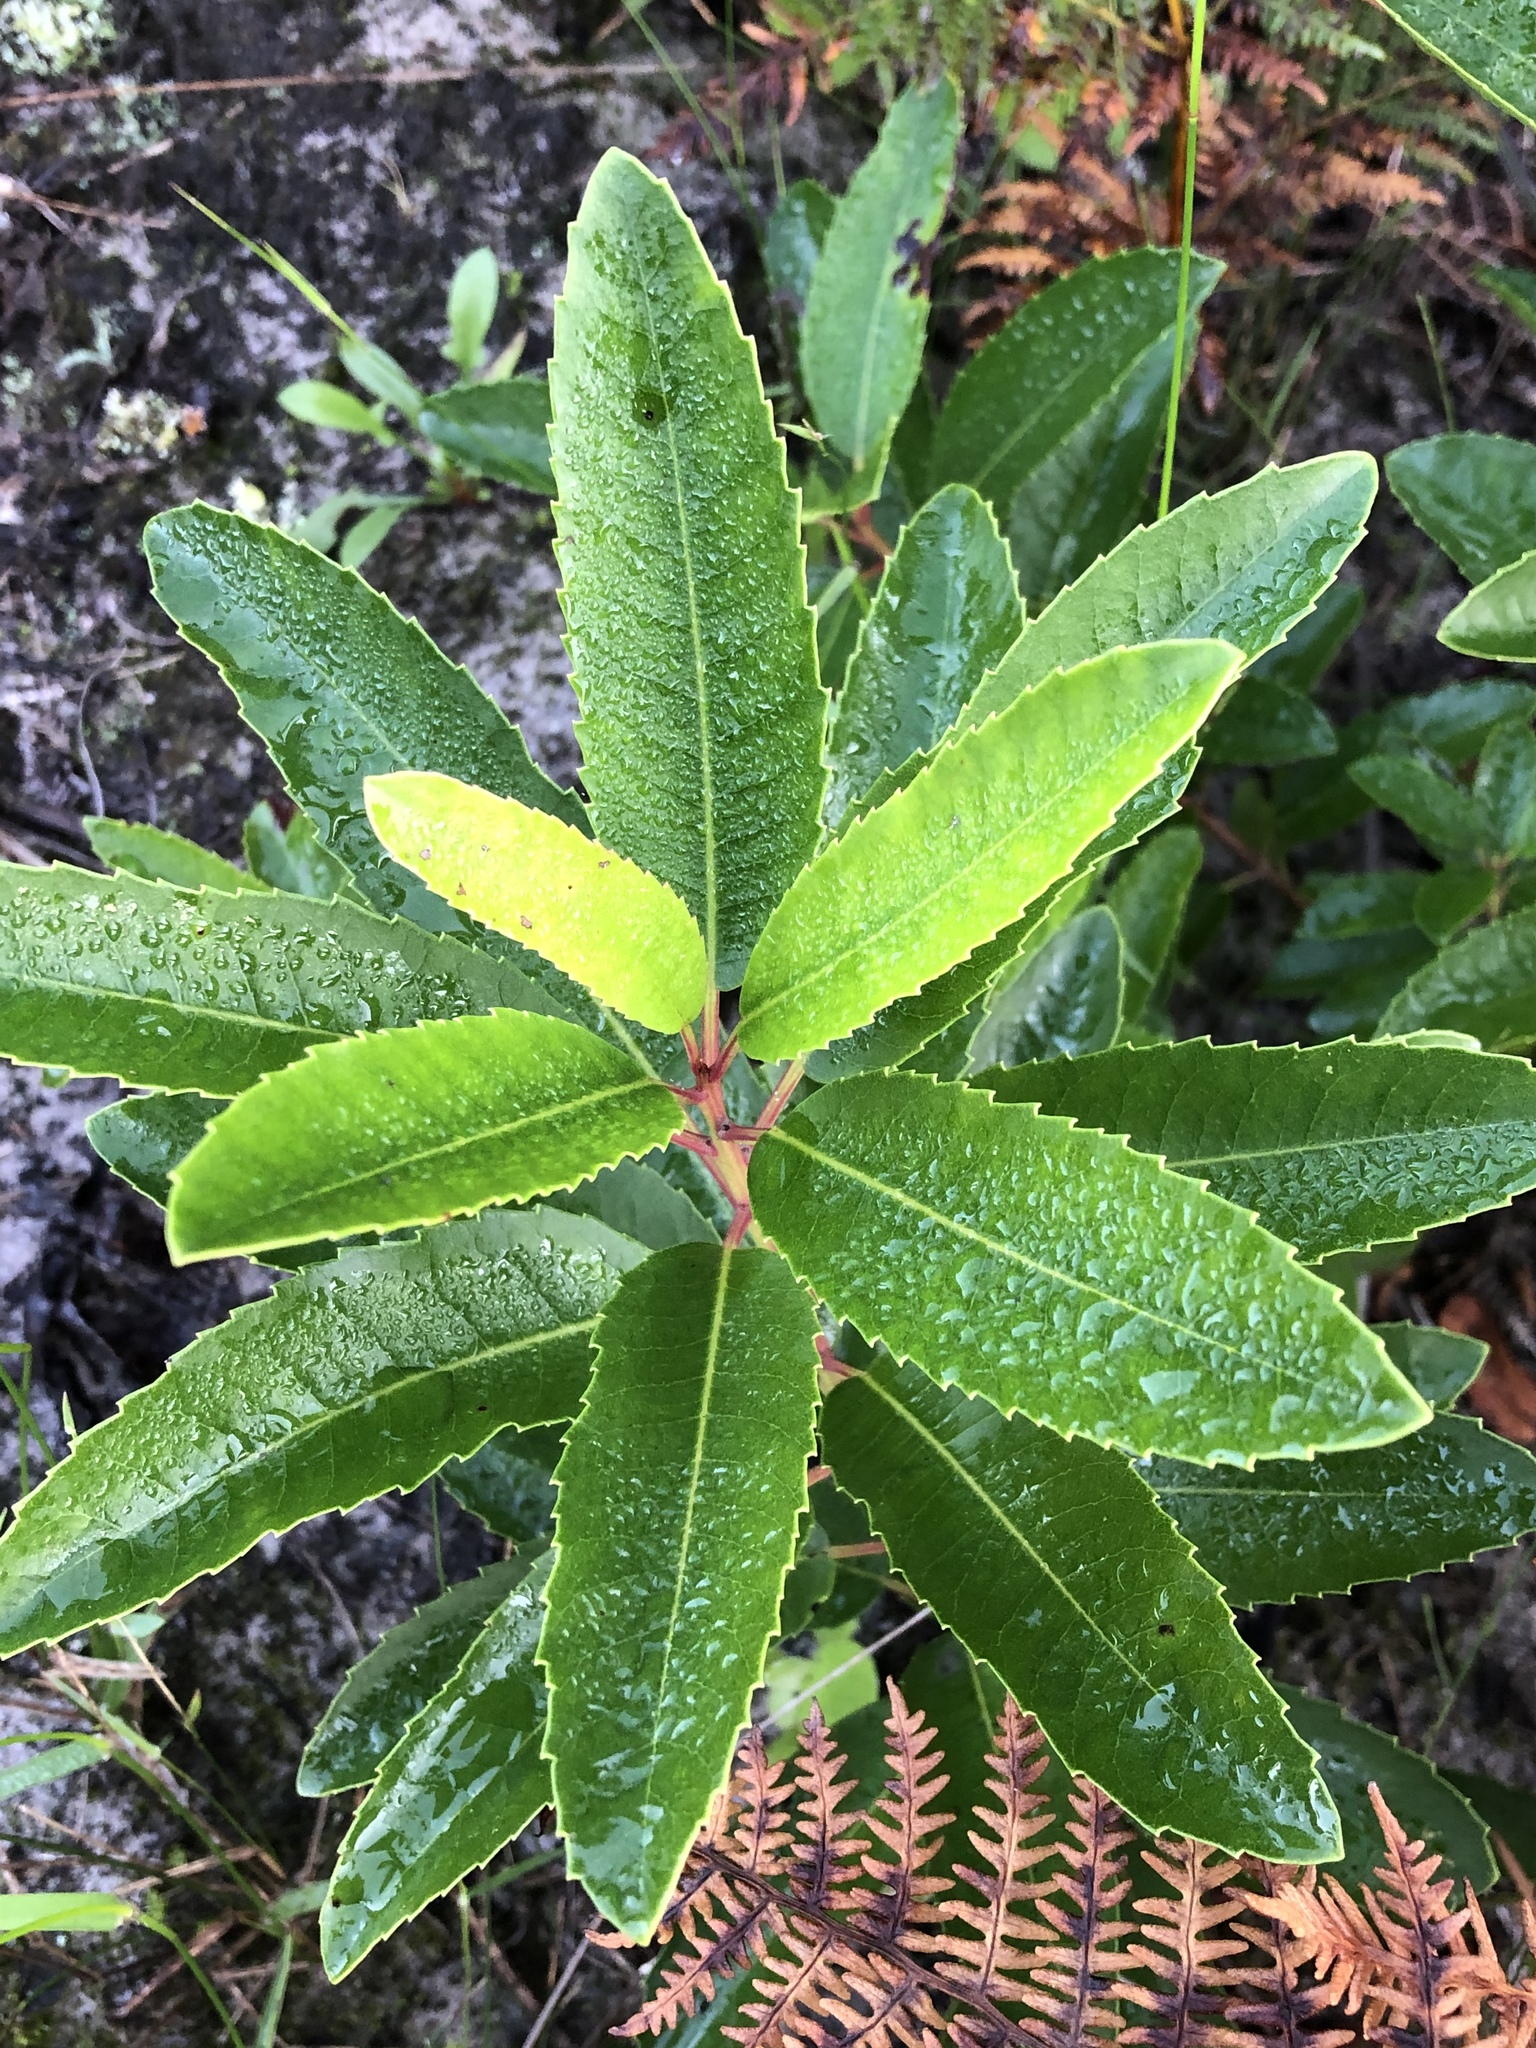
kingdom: Plantae
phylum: Tracheophyta
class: Magnoliopsida
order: Sapindales
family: Anacardiaceae
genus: Laurophyllus
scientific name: Laurophyllus capensis
